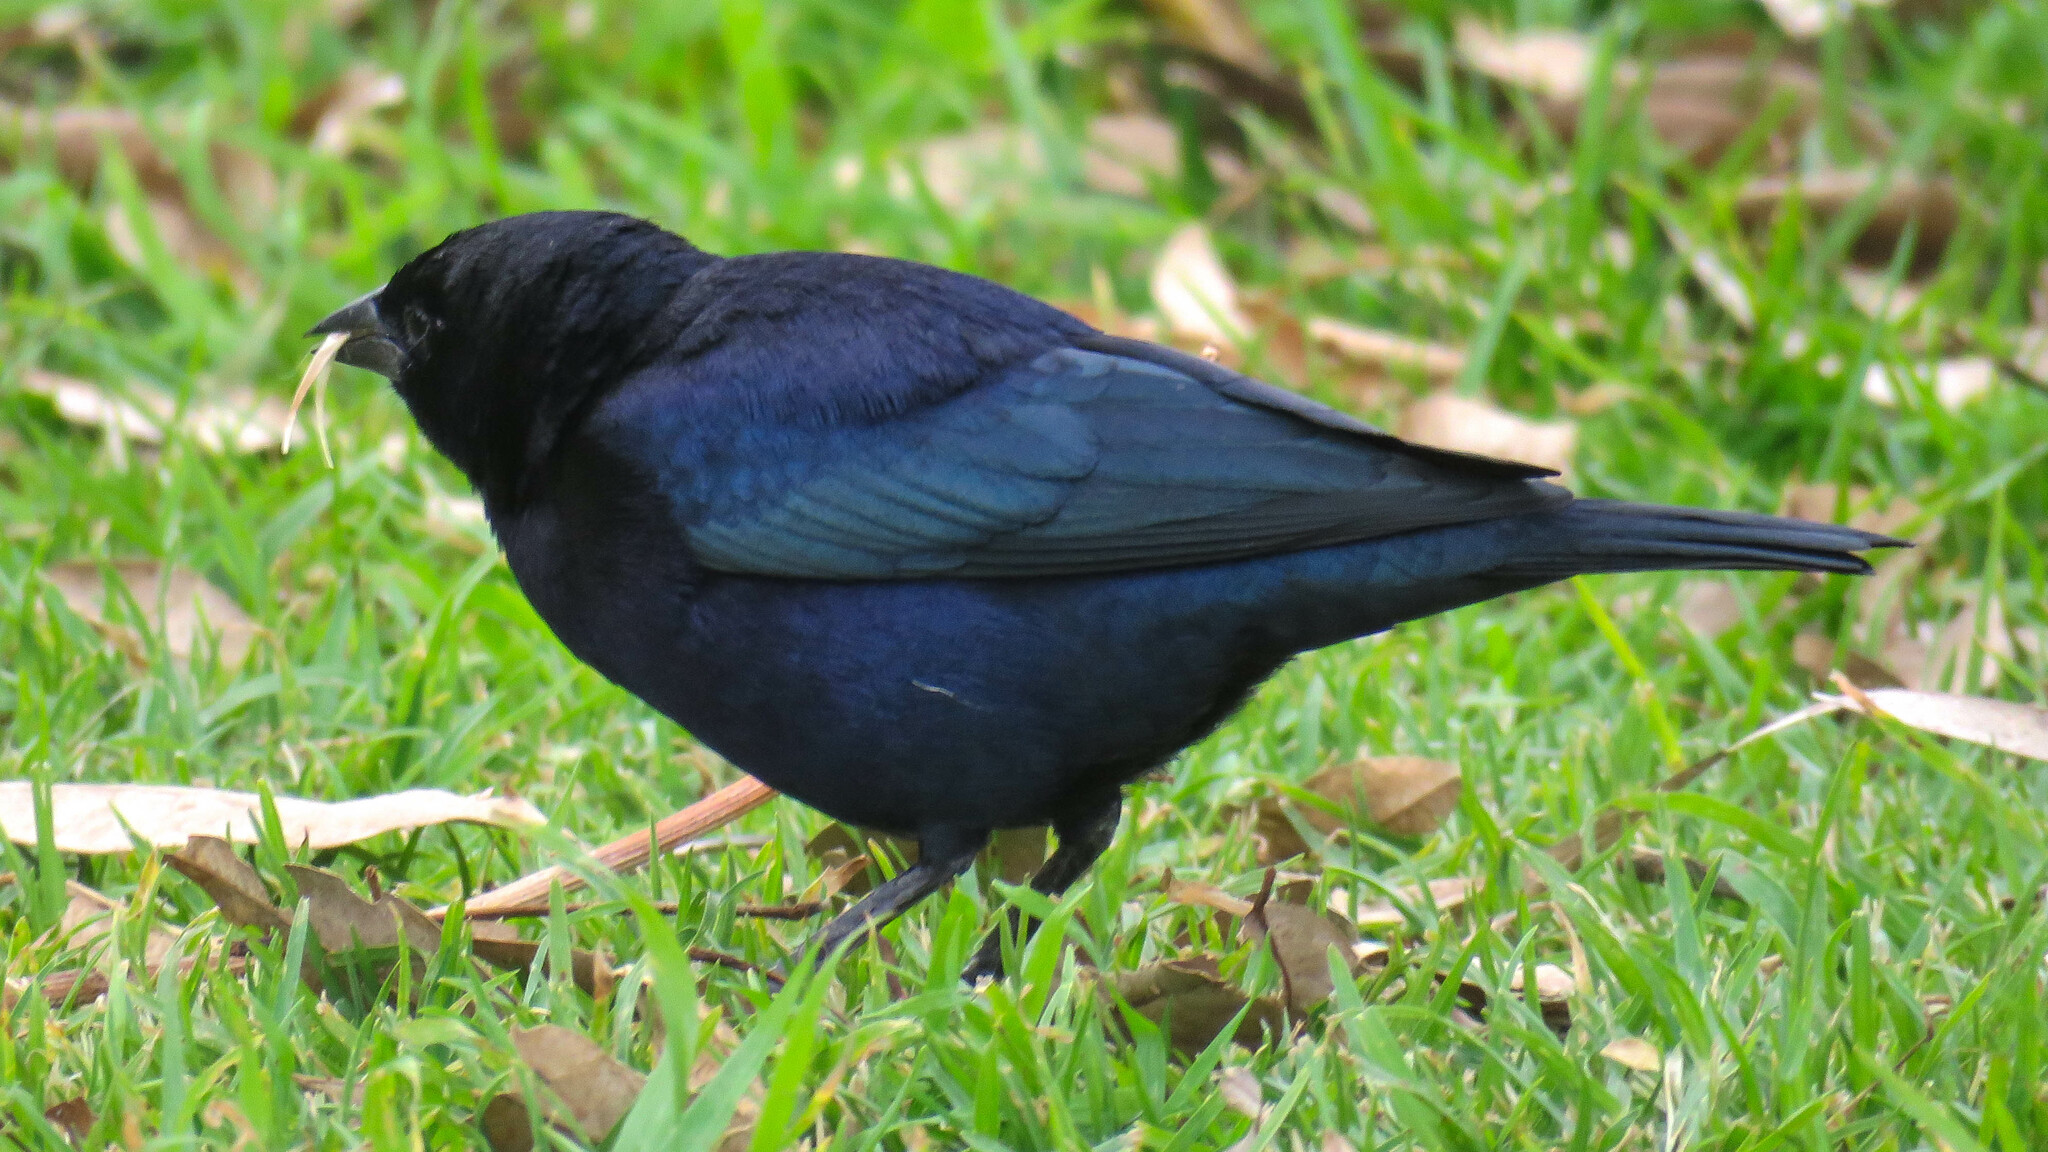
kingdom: Animalia
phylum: Chordata
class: Aves
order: Passeriformes
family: Icteridae
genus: Molothrus
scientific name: Molothrus bonariensis
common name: Shiny cowbird
